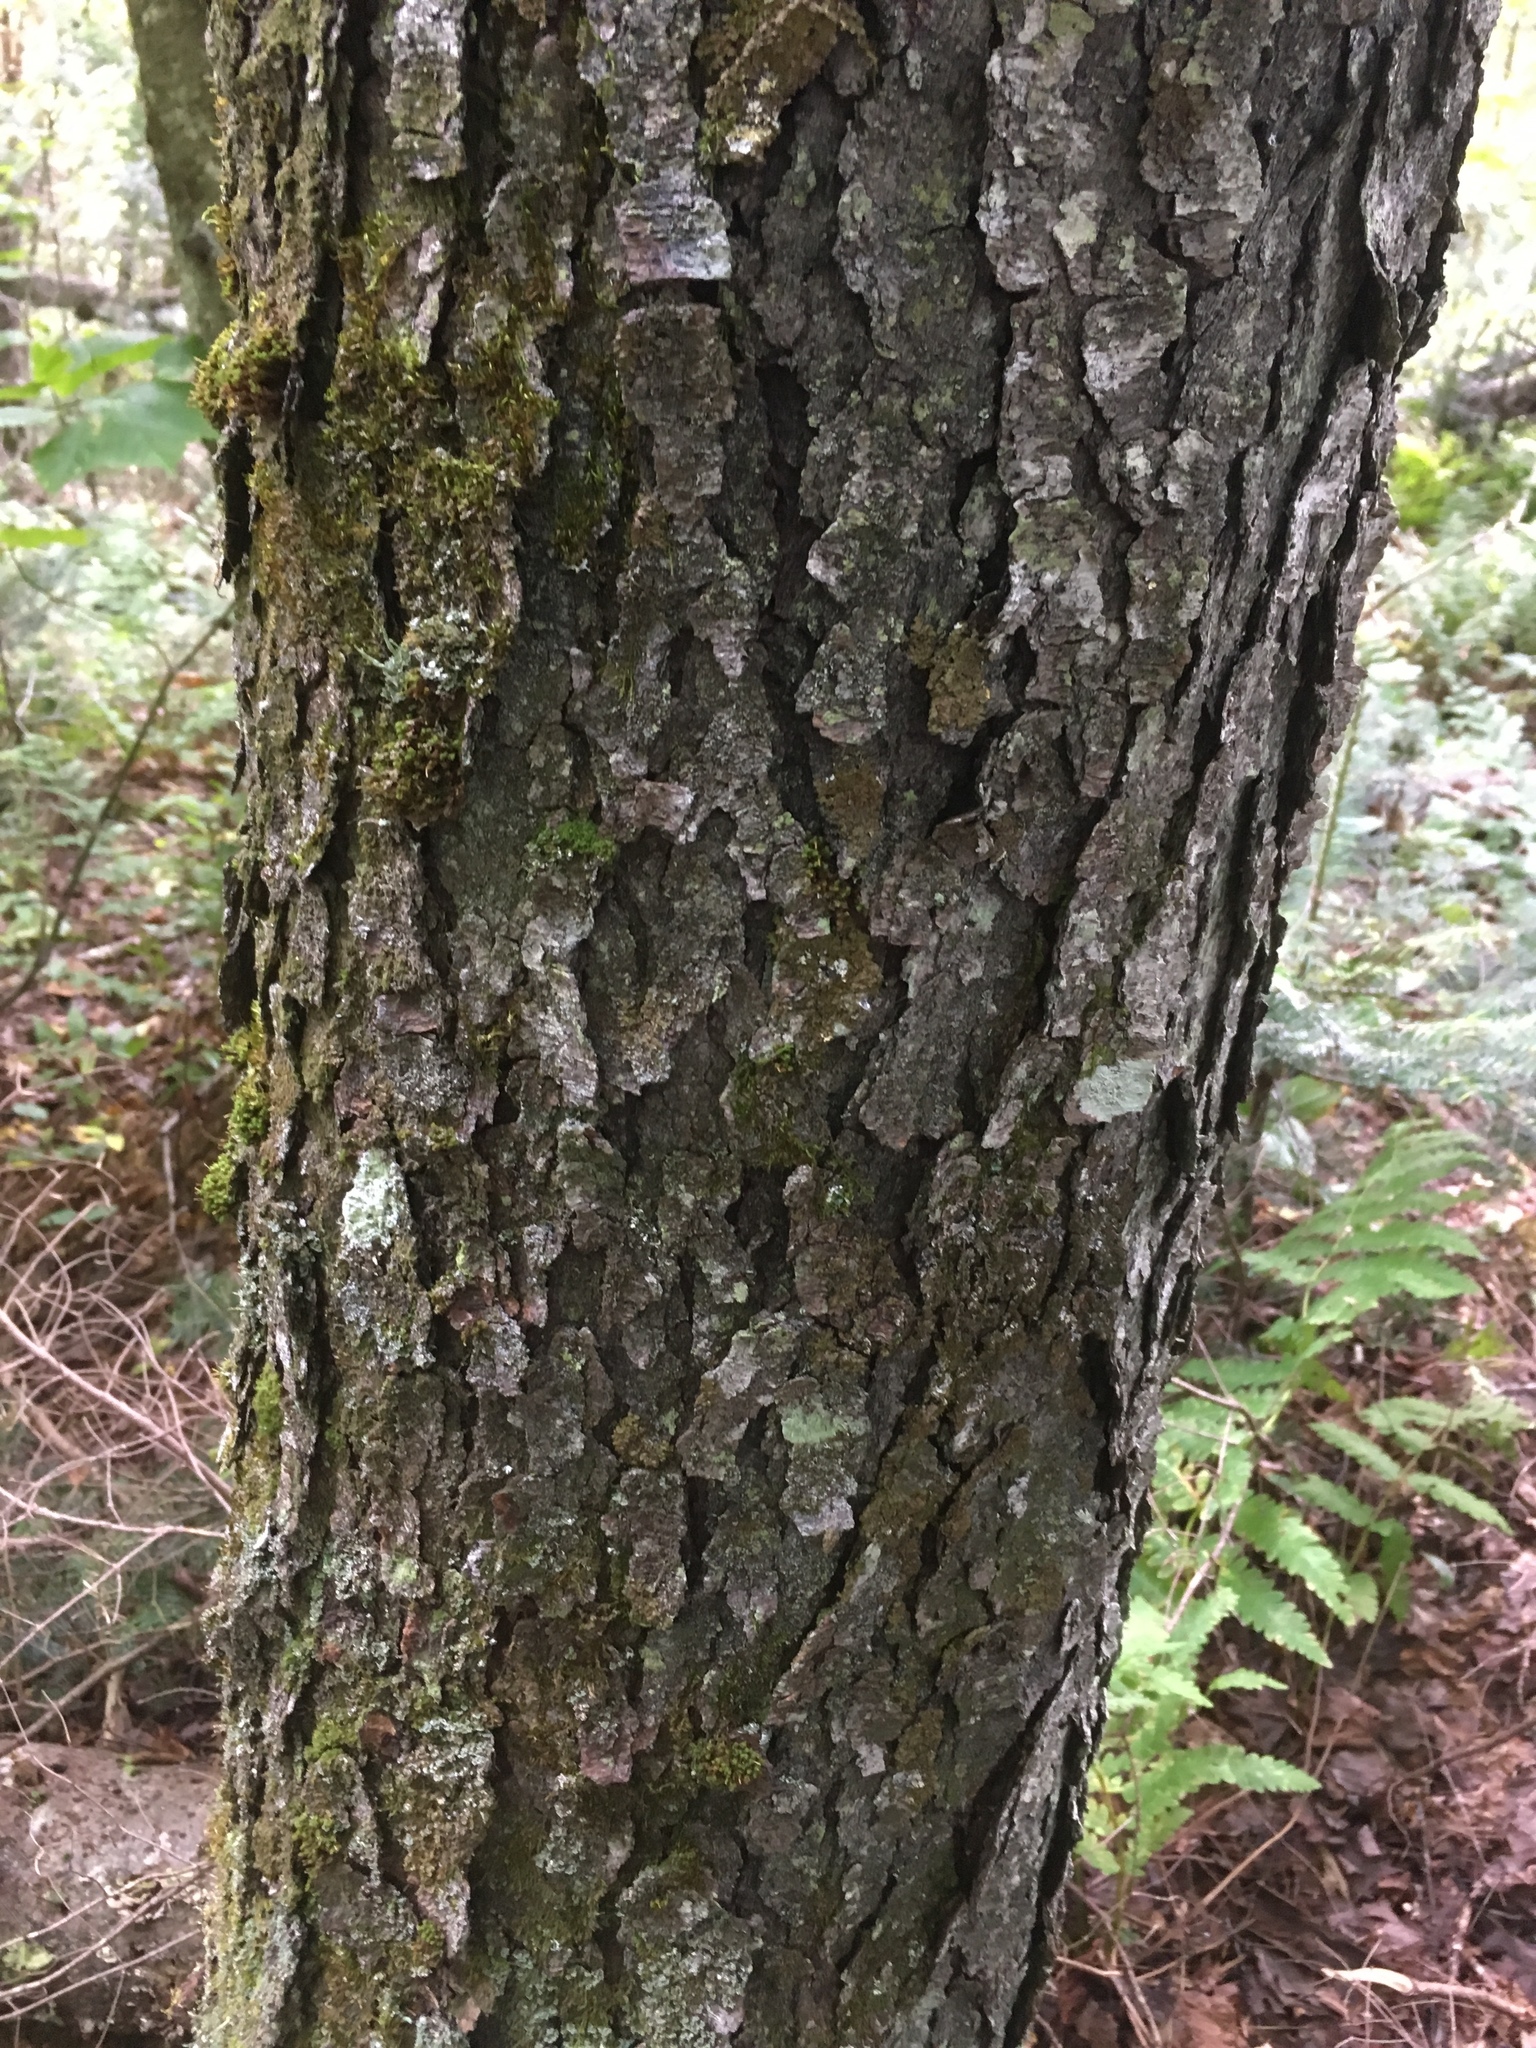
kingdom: Plantae
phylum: Tracheophyta
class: Magnoliopsida
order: Rosales
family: Rosaceae
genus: Prunus
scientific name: Prunus serotina
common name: Black cherry
